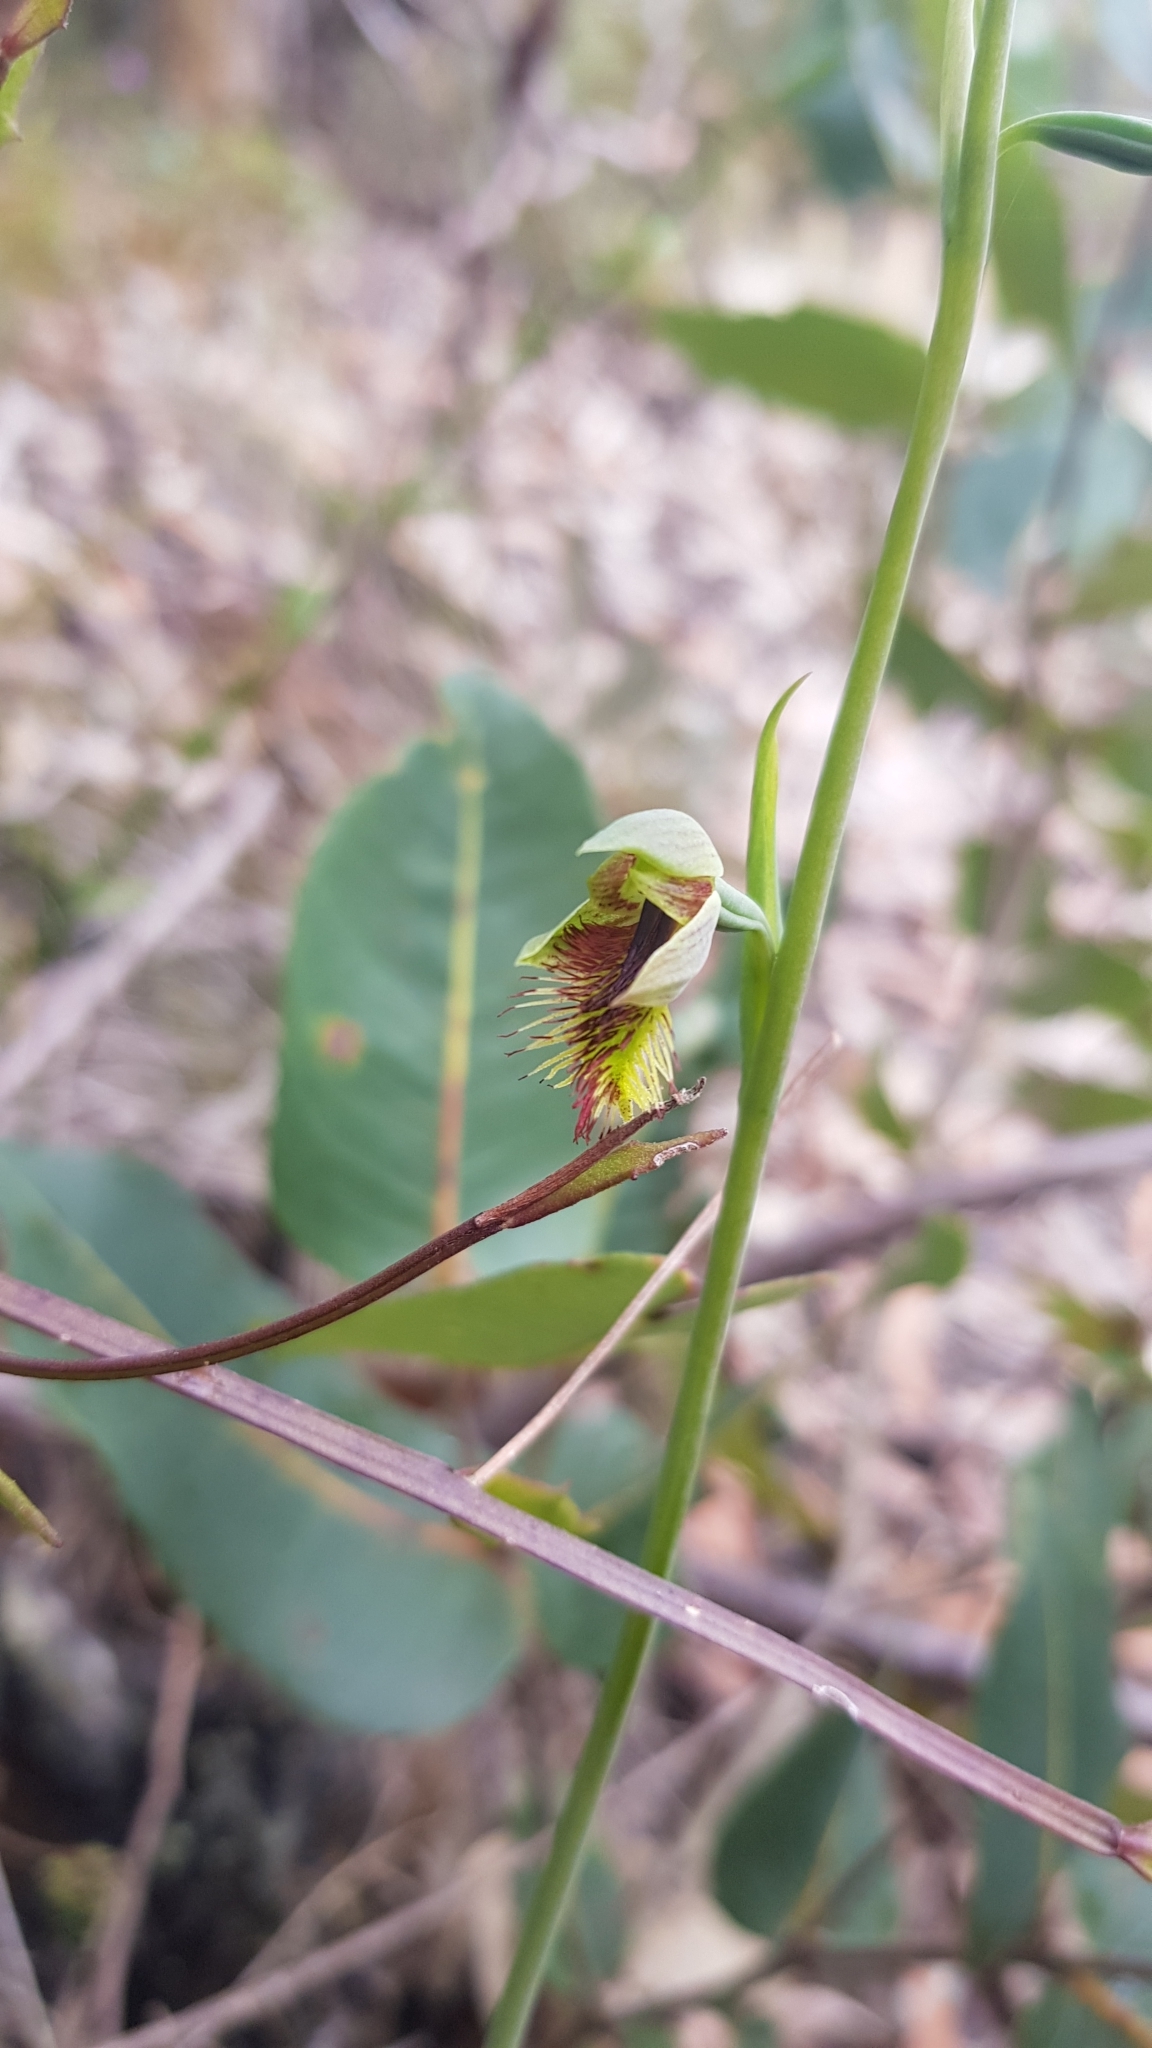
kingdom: Plantae
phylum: Tracheophyta
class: Liliopsida
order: Asparagales
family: Orchidaceae
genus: Calochilus
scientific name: Calochilus campestris
